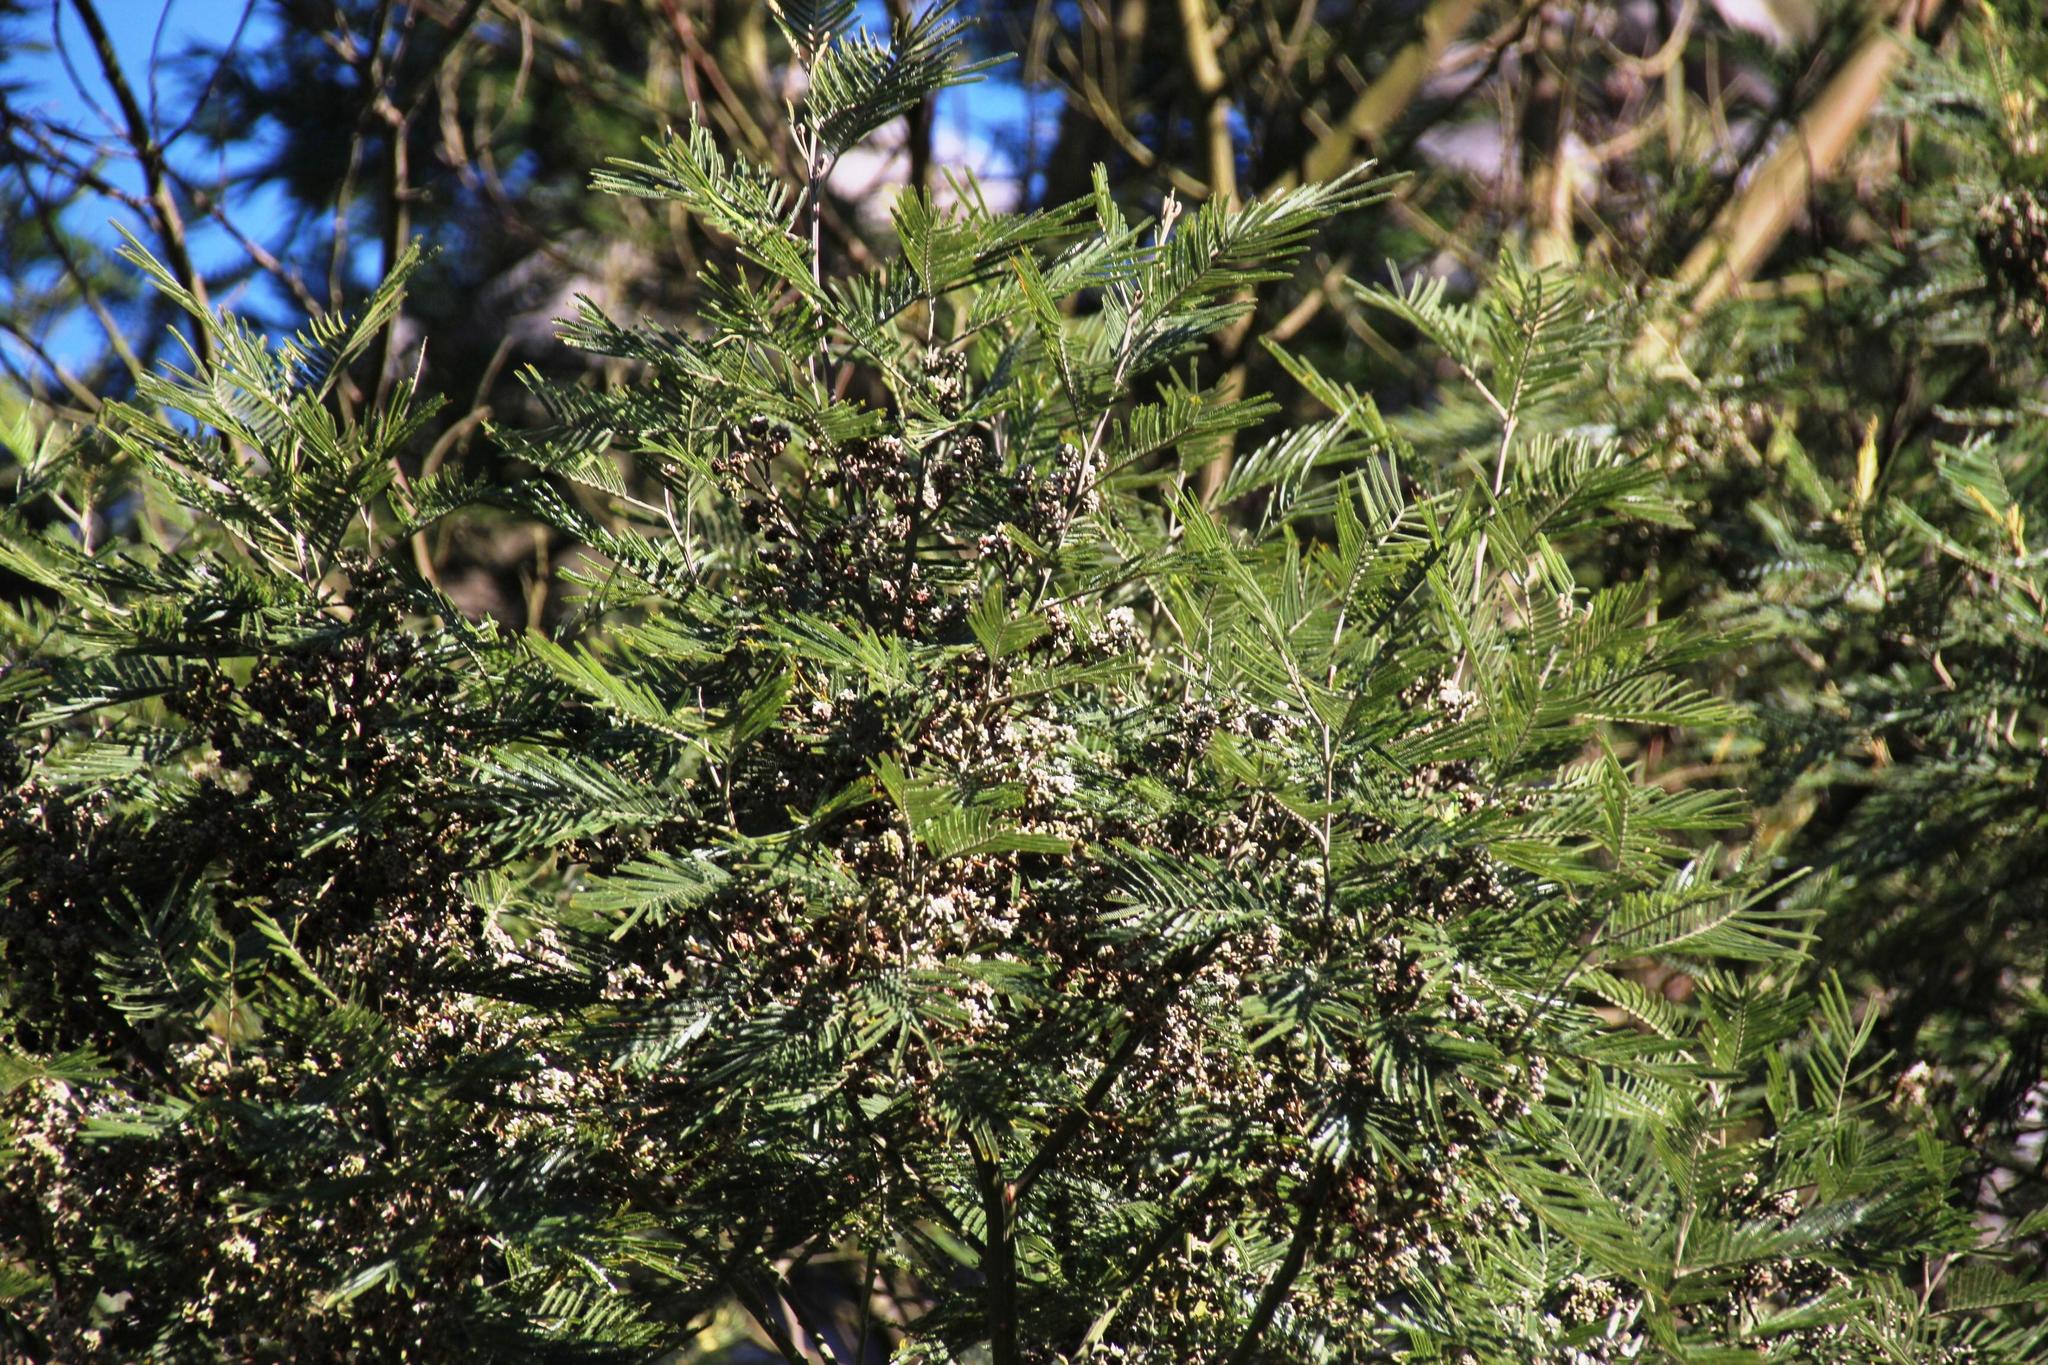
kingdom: Plantae
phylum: Tracheophyta
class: Magnoliopsida
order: Fabales
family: Fabaceae
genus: Acacia
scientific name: Acacia mearnsii
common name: Black wattle
